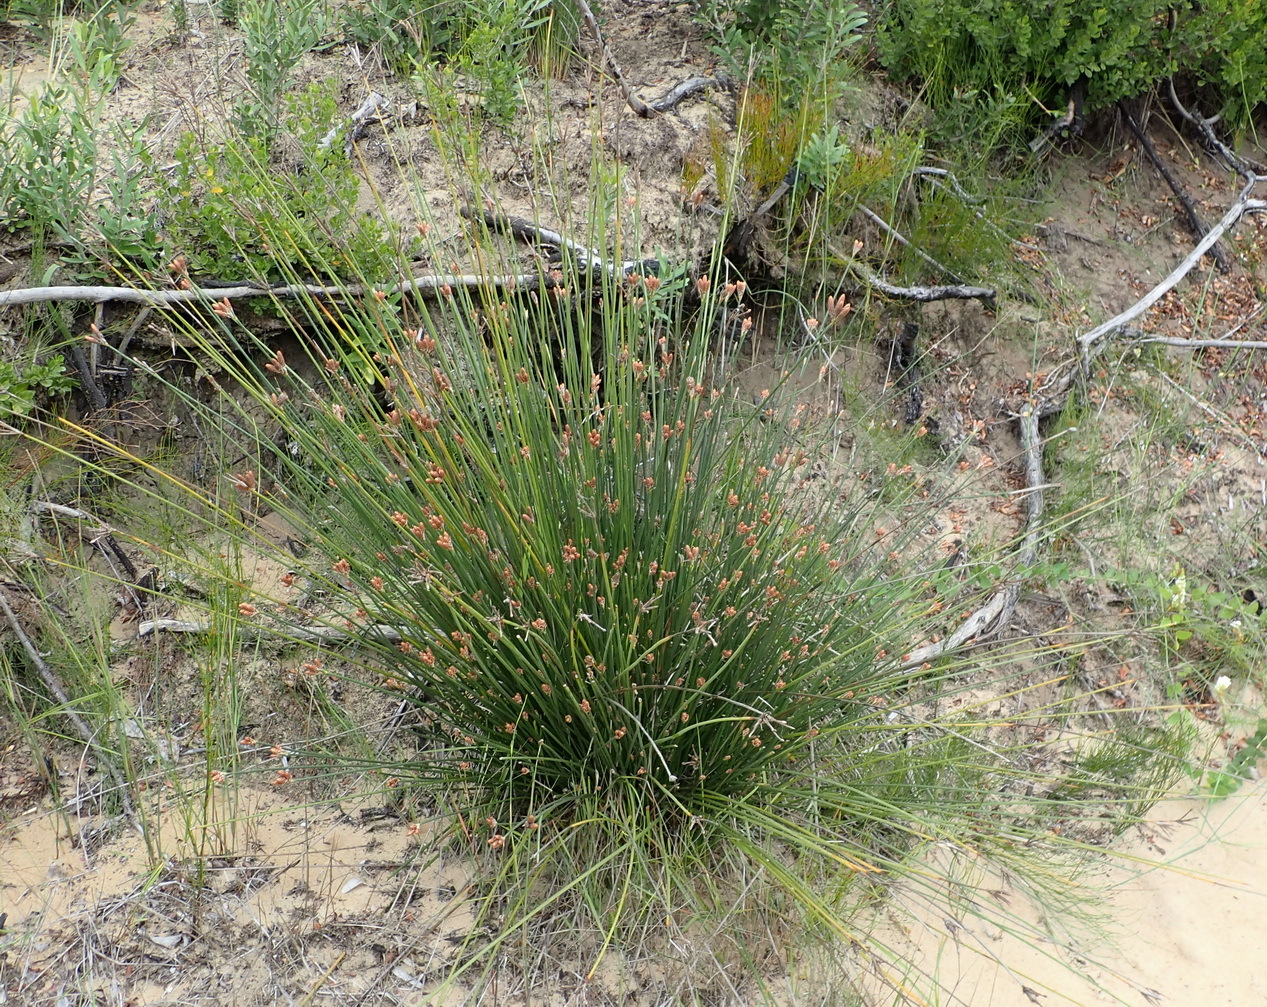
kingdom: Plantae
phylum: Tracheophyta
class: Liliopsida
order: Poales
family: Cyperaceae
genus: Hellmuthia
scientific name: Hellmuthia membranacea
